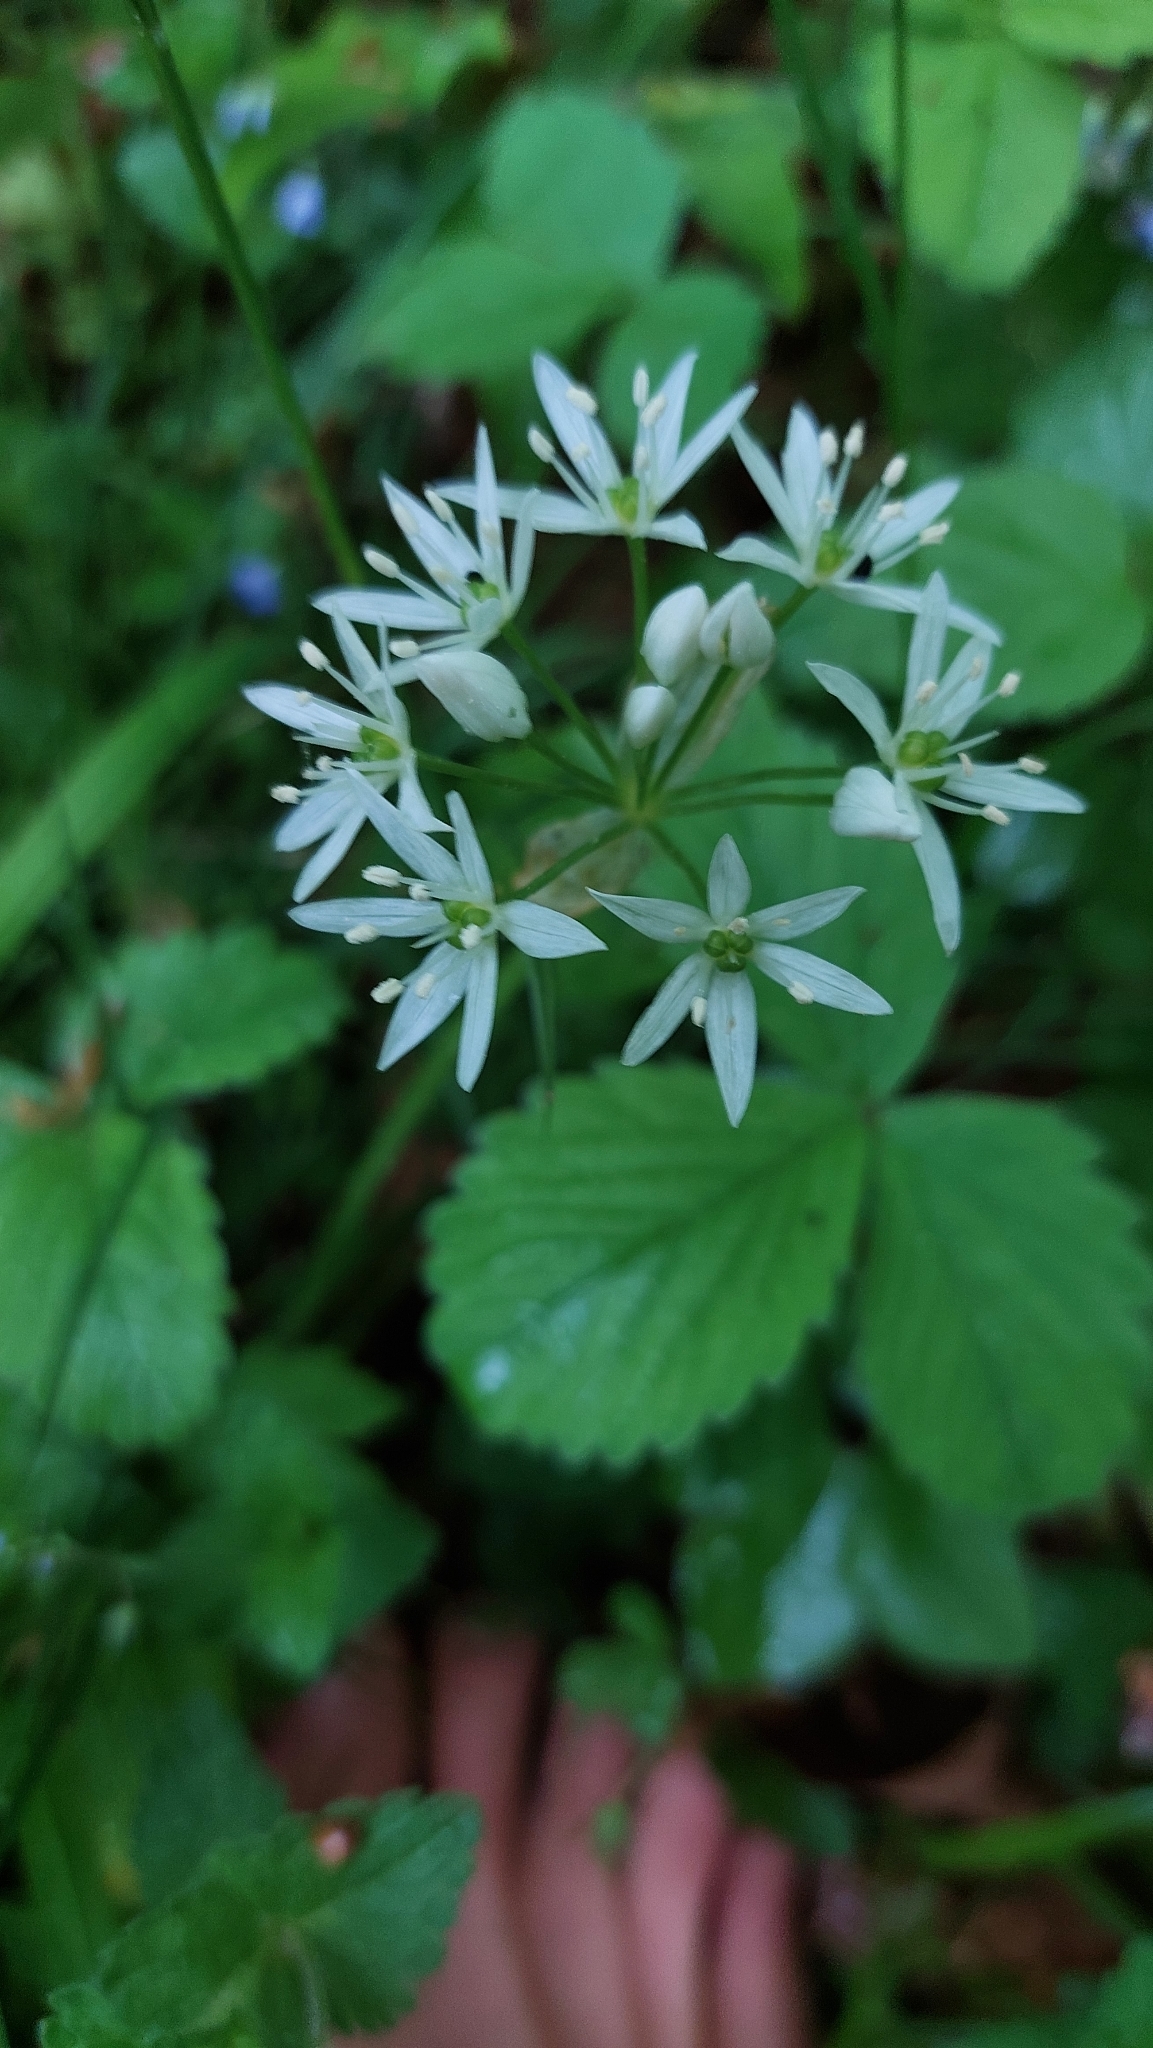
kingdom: Plantae
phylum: Tracheophyta
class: Liliopsida
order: Asparagales
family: Amaryllidaceae
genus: Allium
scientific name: Allium ursinum
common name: Ramsons
